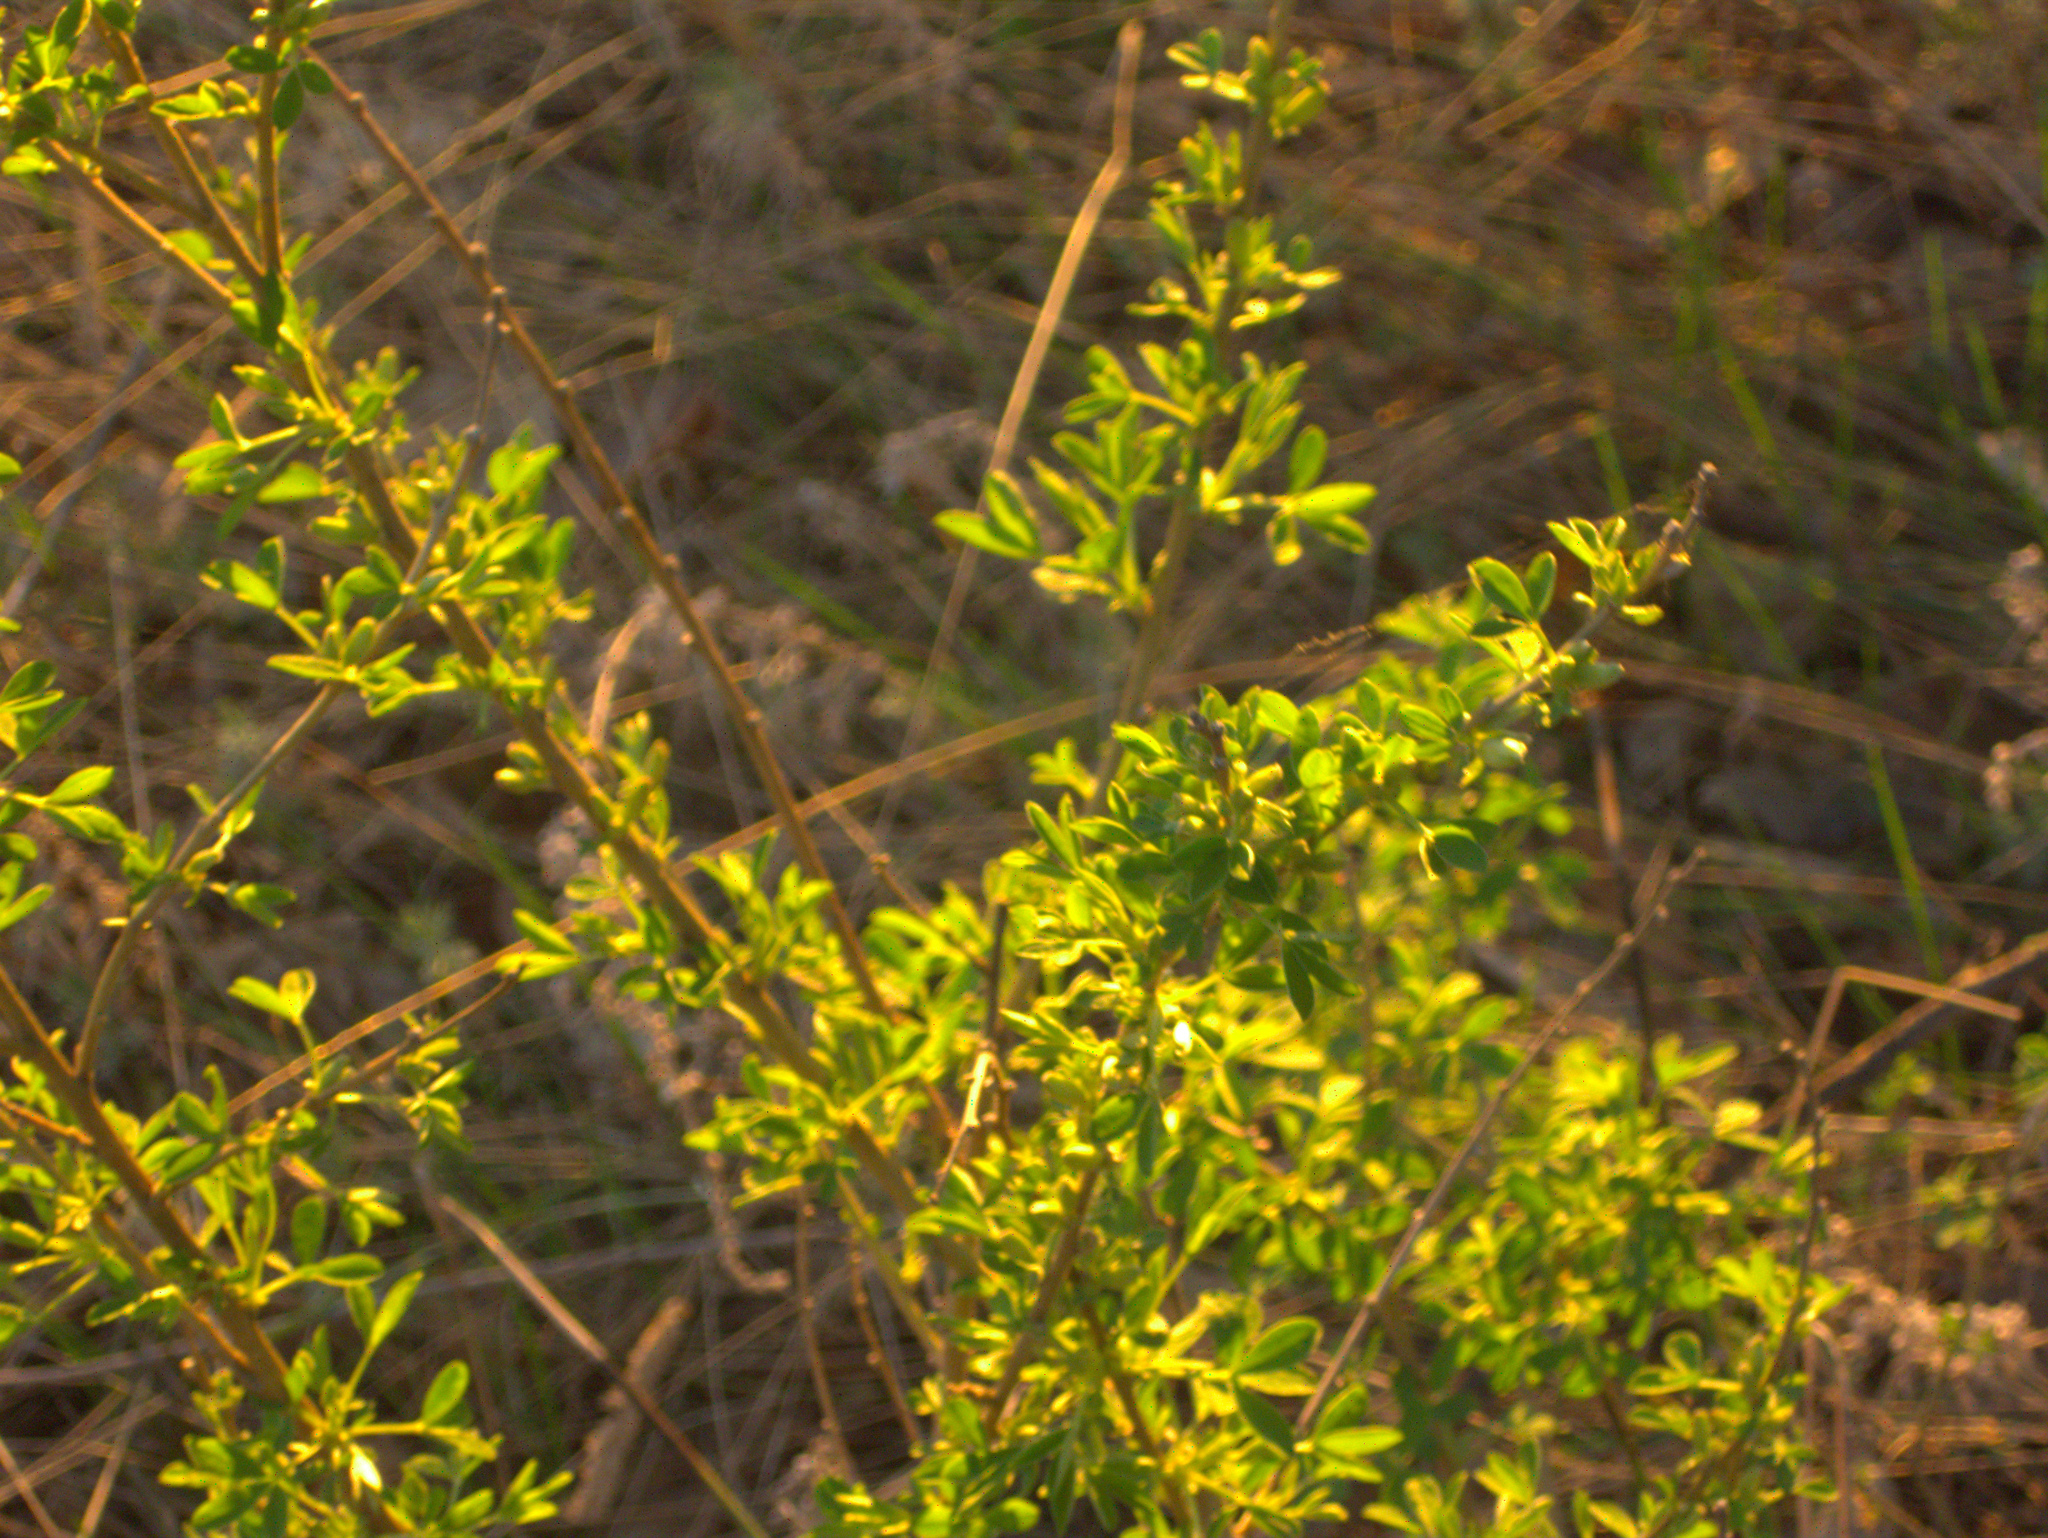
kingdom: Plantae
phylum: Tracheophyta
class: Magnoliopsida
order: Fabales
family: Fabaceae
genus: Chamaecytisus
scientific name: Chamaecytisus ruthenicus
